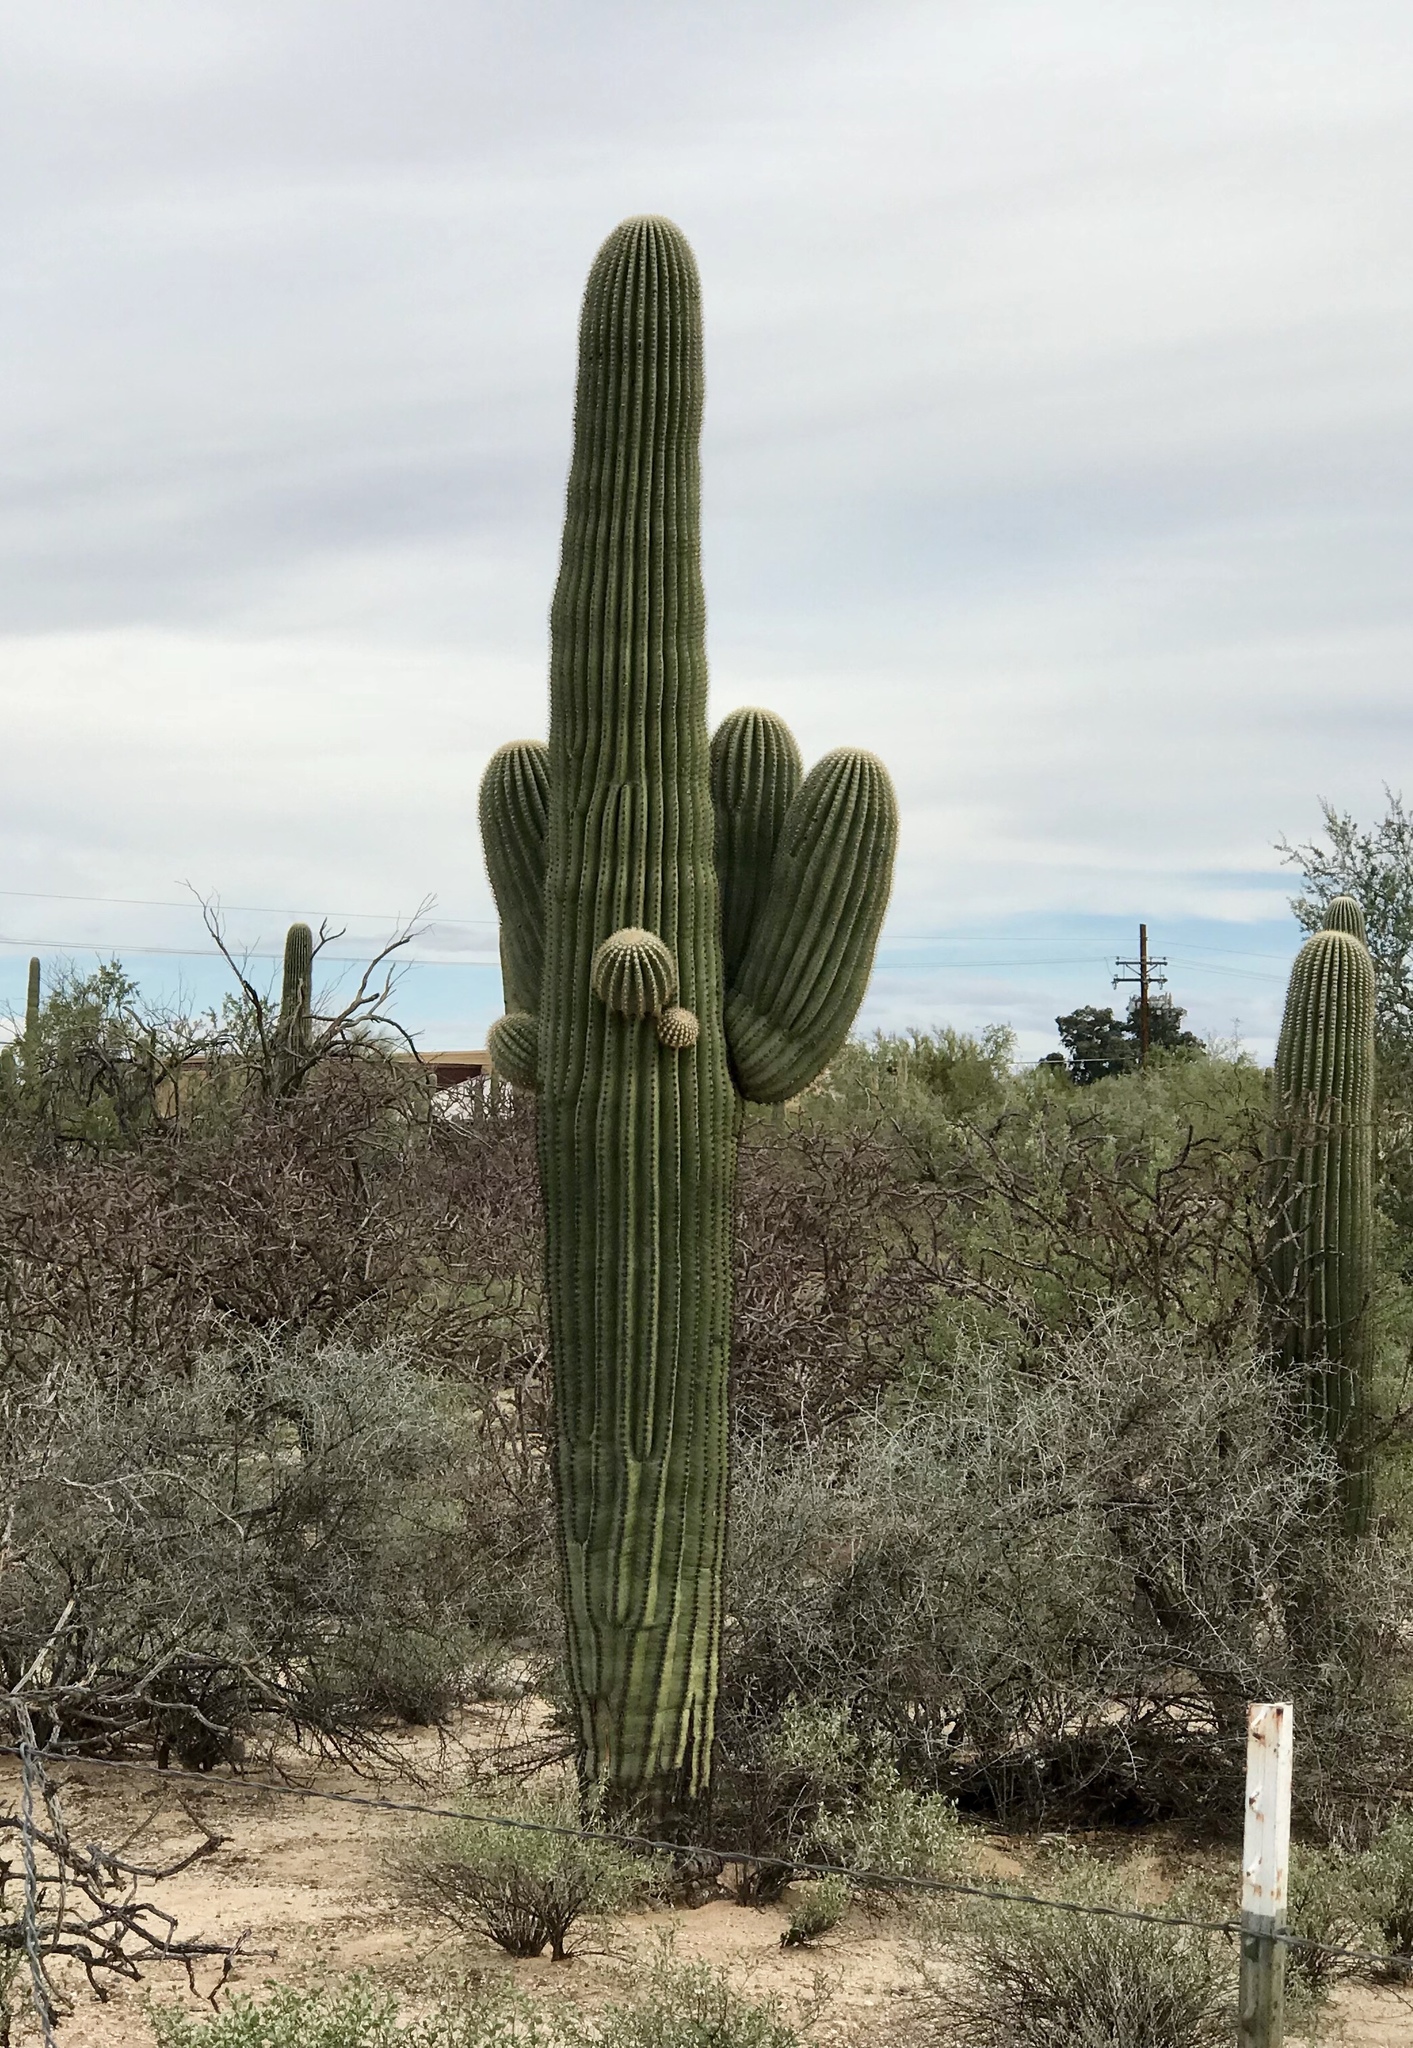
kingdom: Plantae
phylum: Tracheophyta
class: Magnoliopsida
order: Caryophyllales
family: Cactaceae
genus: Carnegiea
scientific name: Carnegiea gigantea
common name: Saguaro
